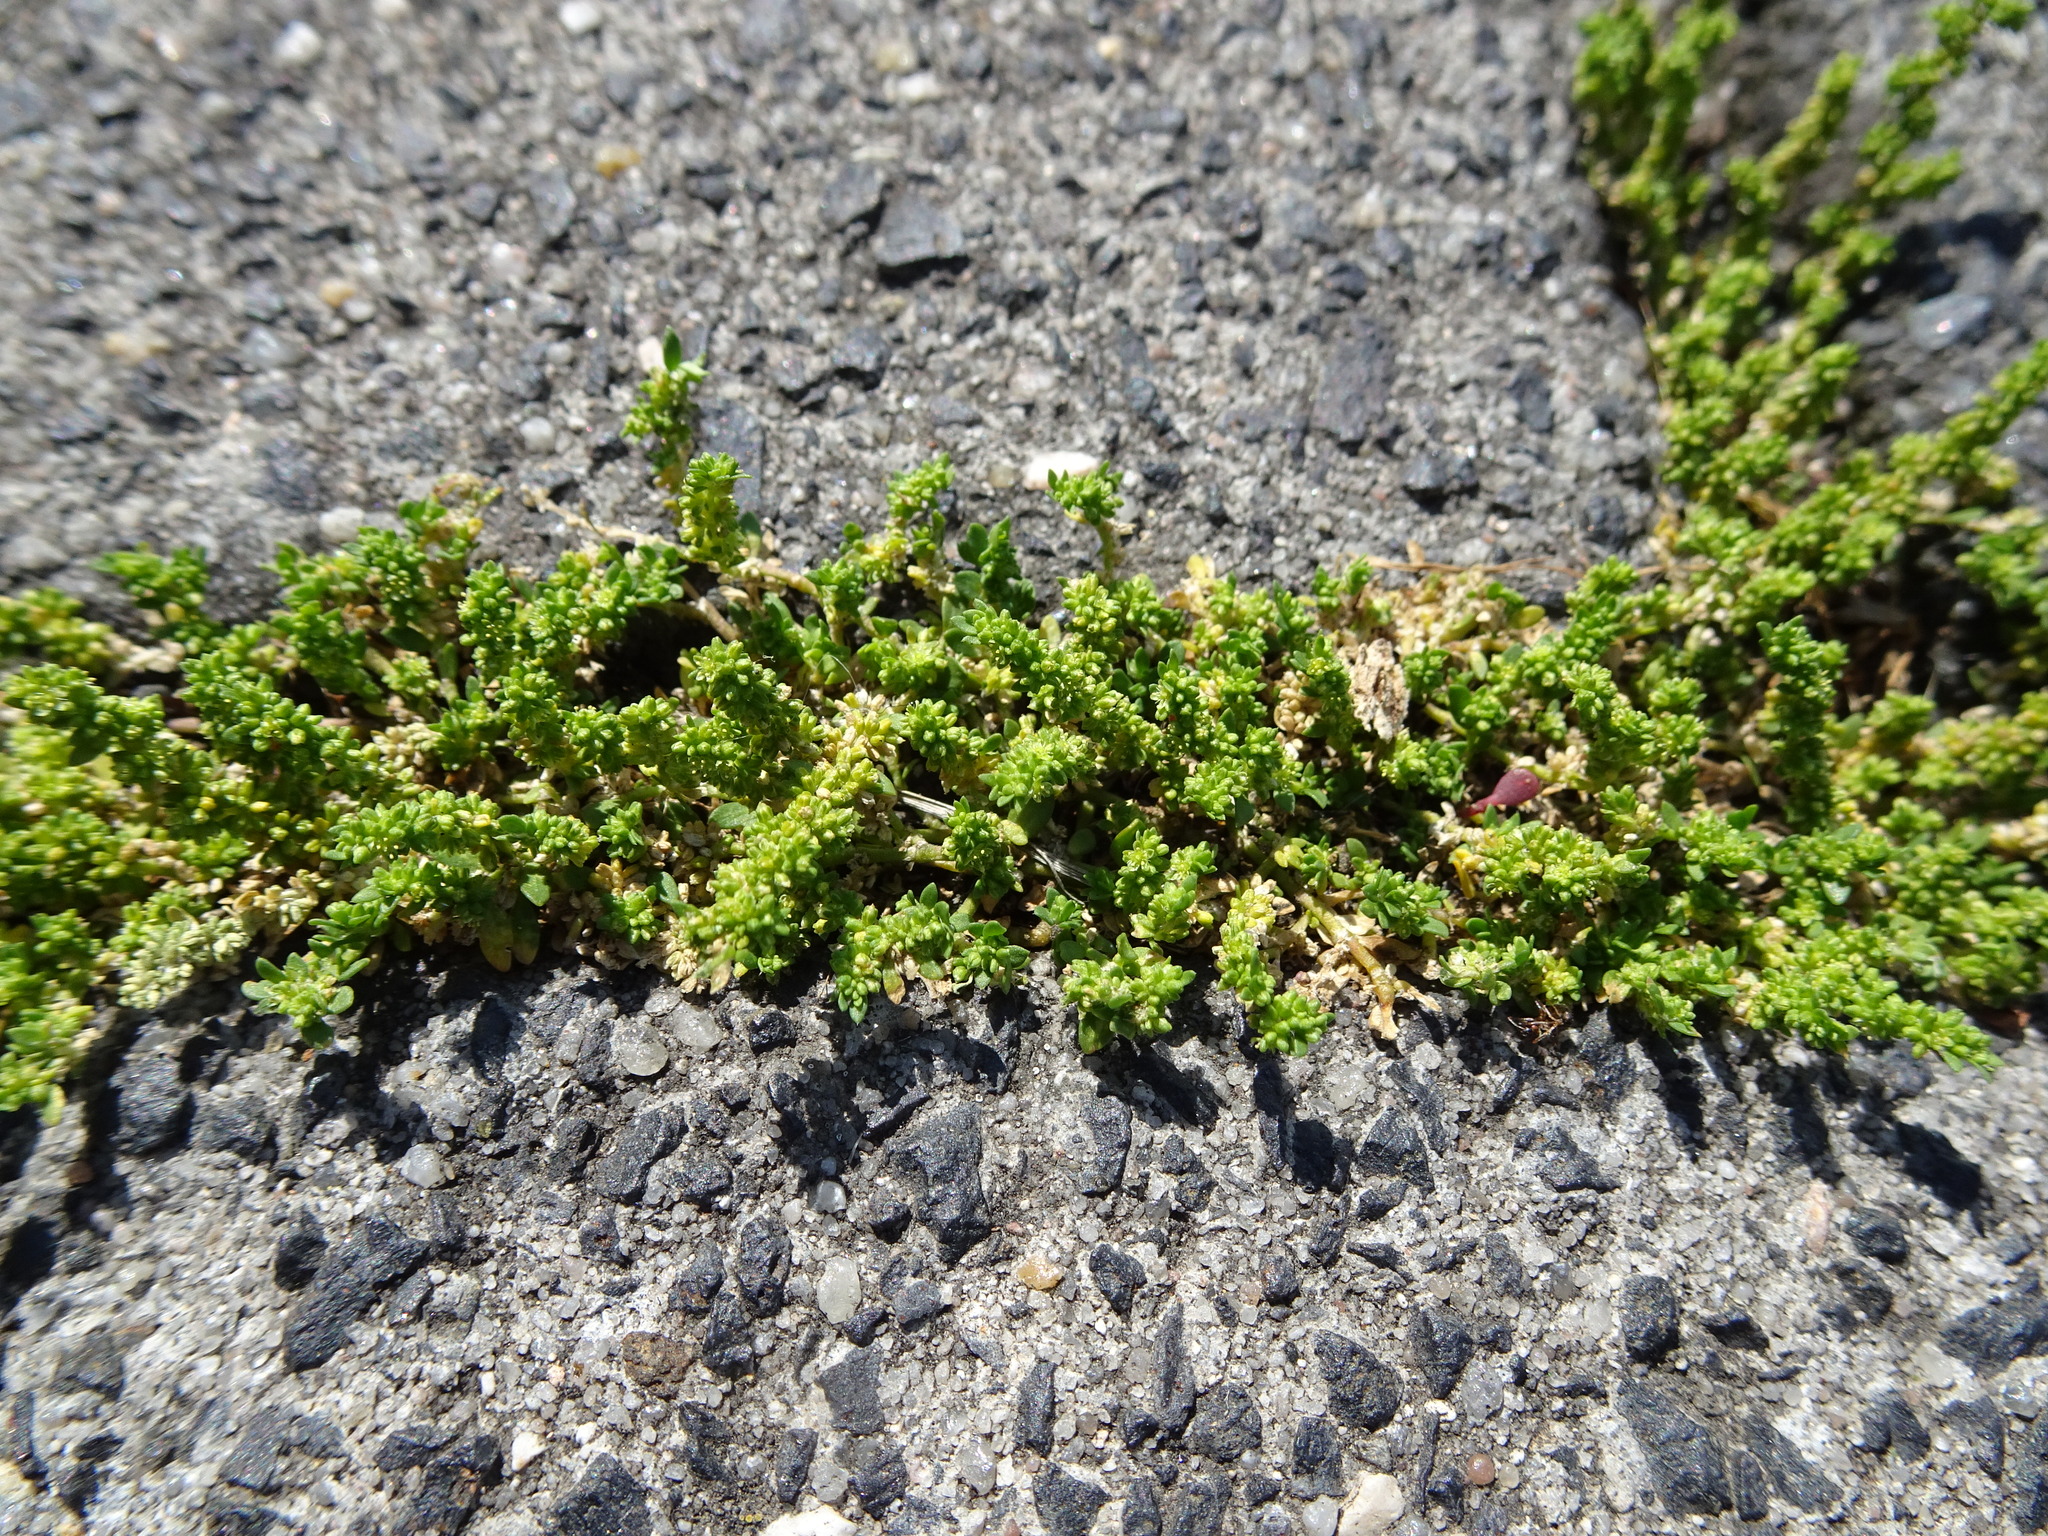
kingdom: Plantae
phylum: Tracheophyta
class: Magnoliopsida
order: Caryophyllales
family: Caryophyllaceae
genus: Herniaria
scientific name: Herniaria glabra
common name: Smooth rupturewort
